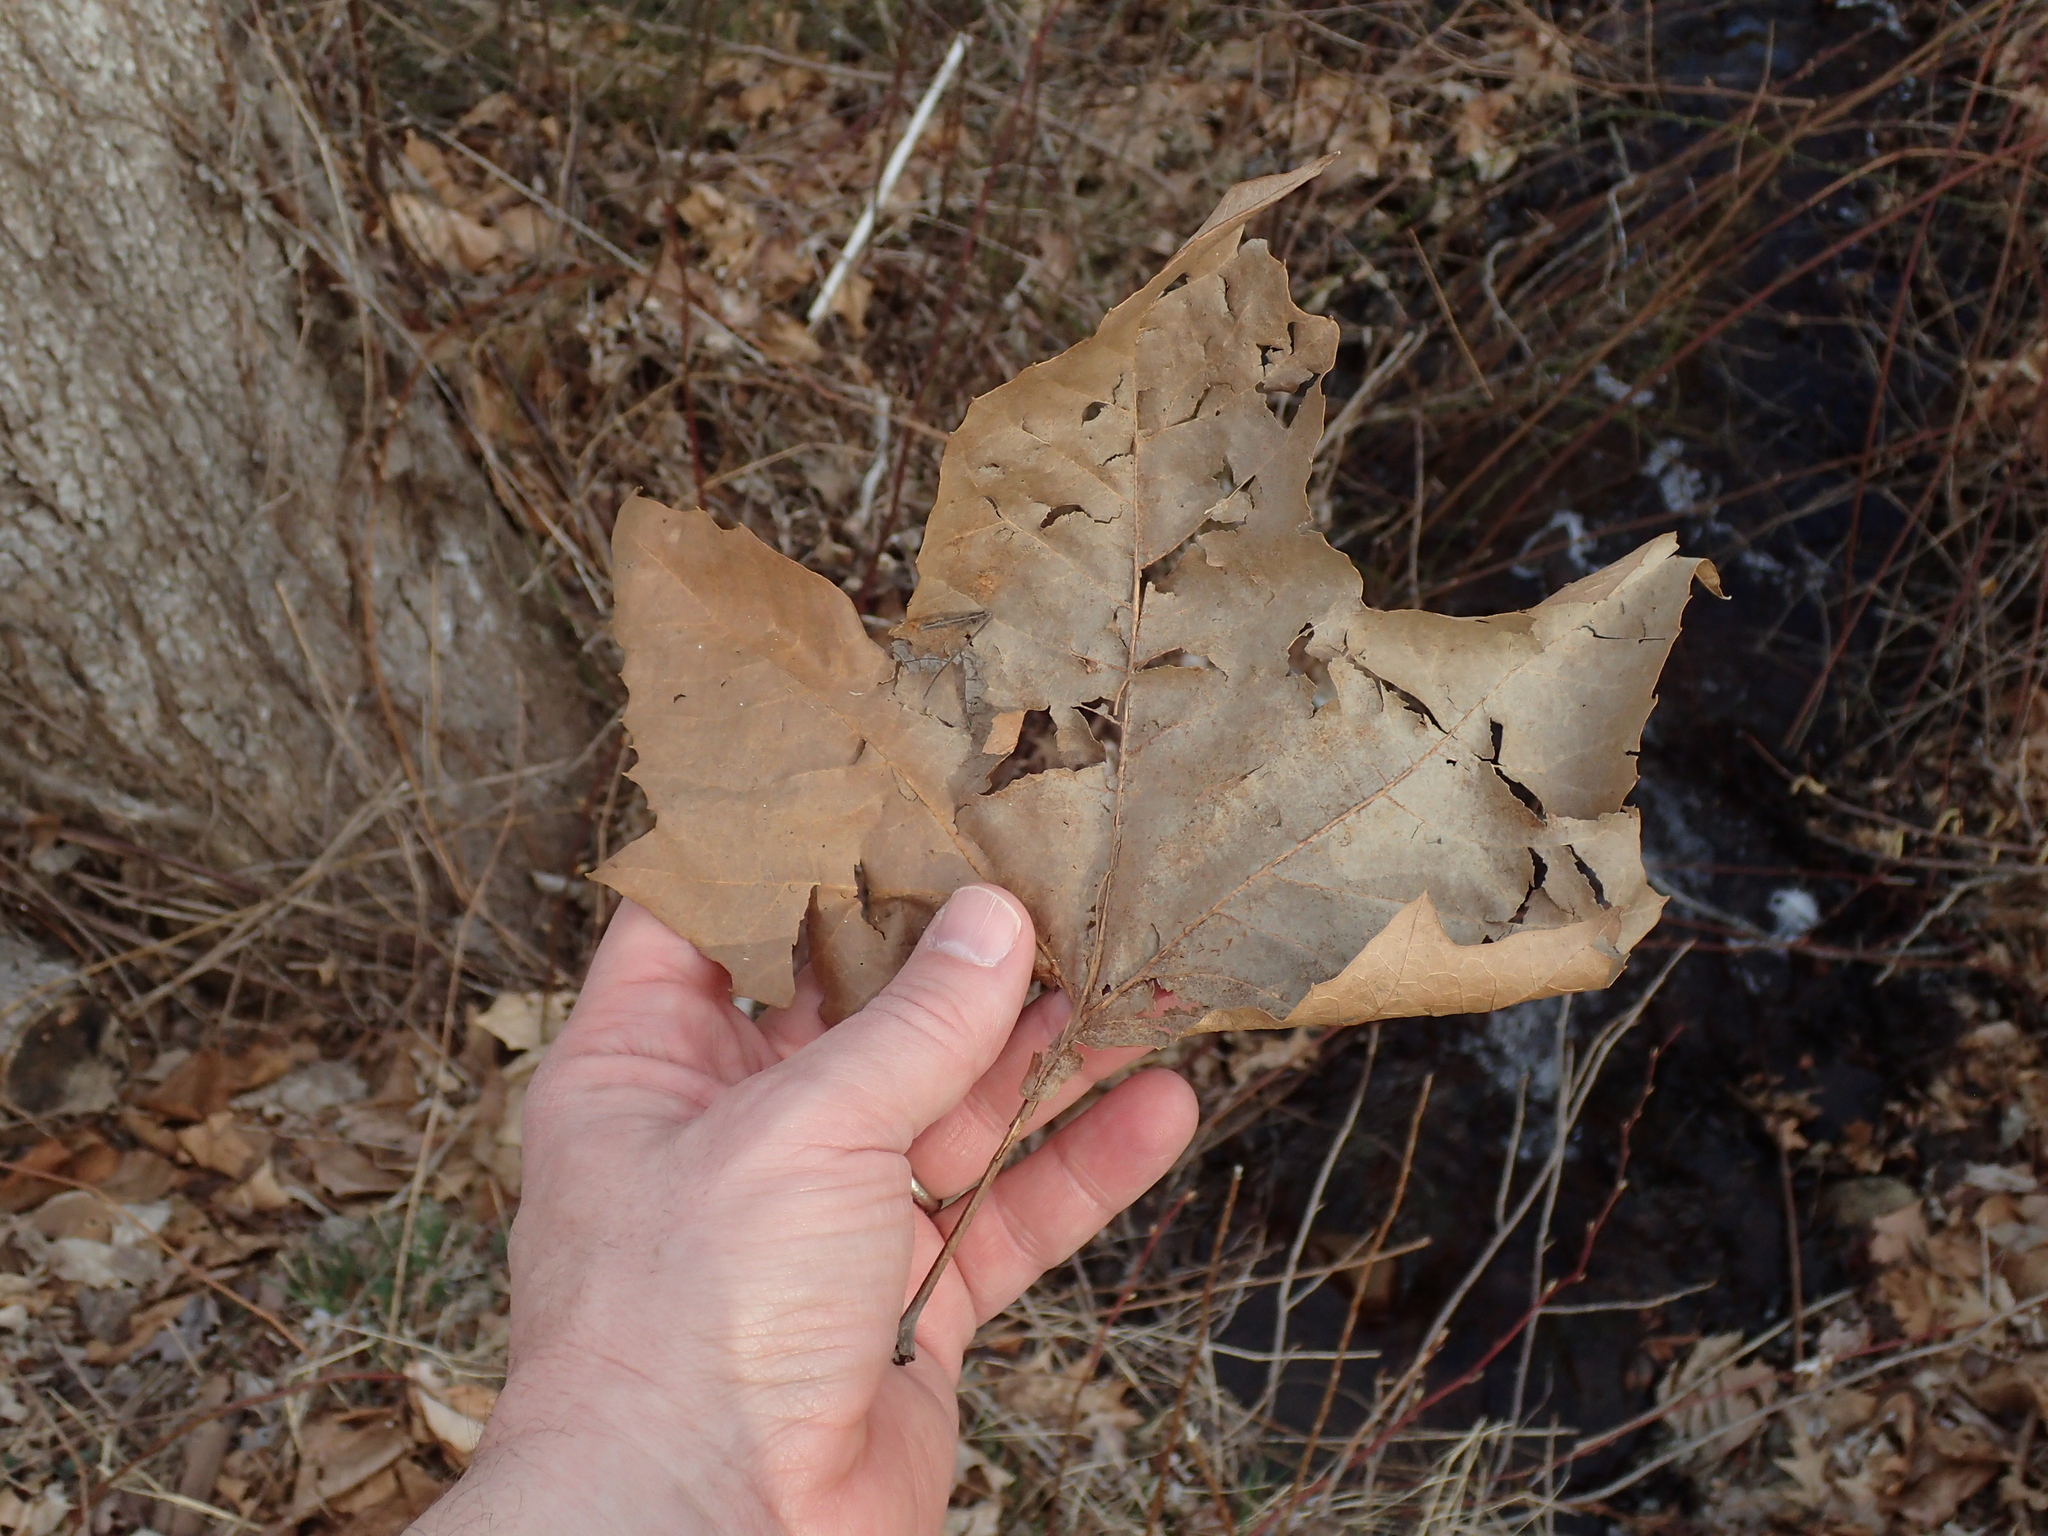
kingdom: Plantae
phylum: Tracheophyta
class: Magnoliopsida
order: Proteales
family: Platanaceae
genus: Platanus
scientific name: Platanus occidentalis
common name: American sycamore
